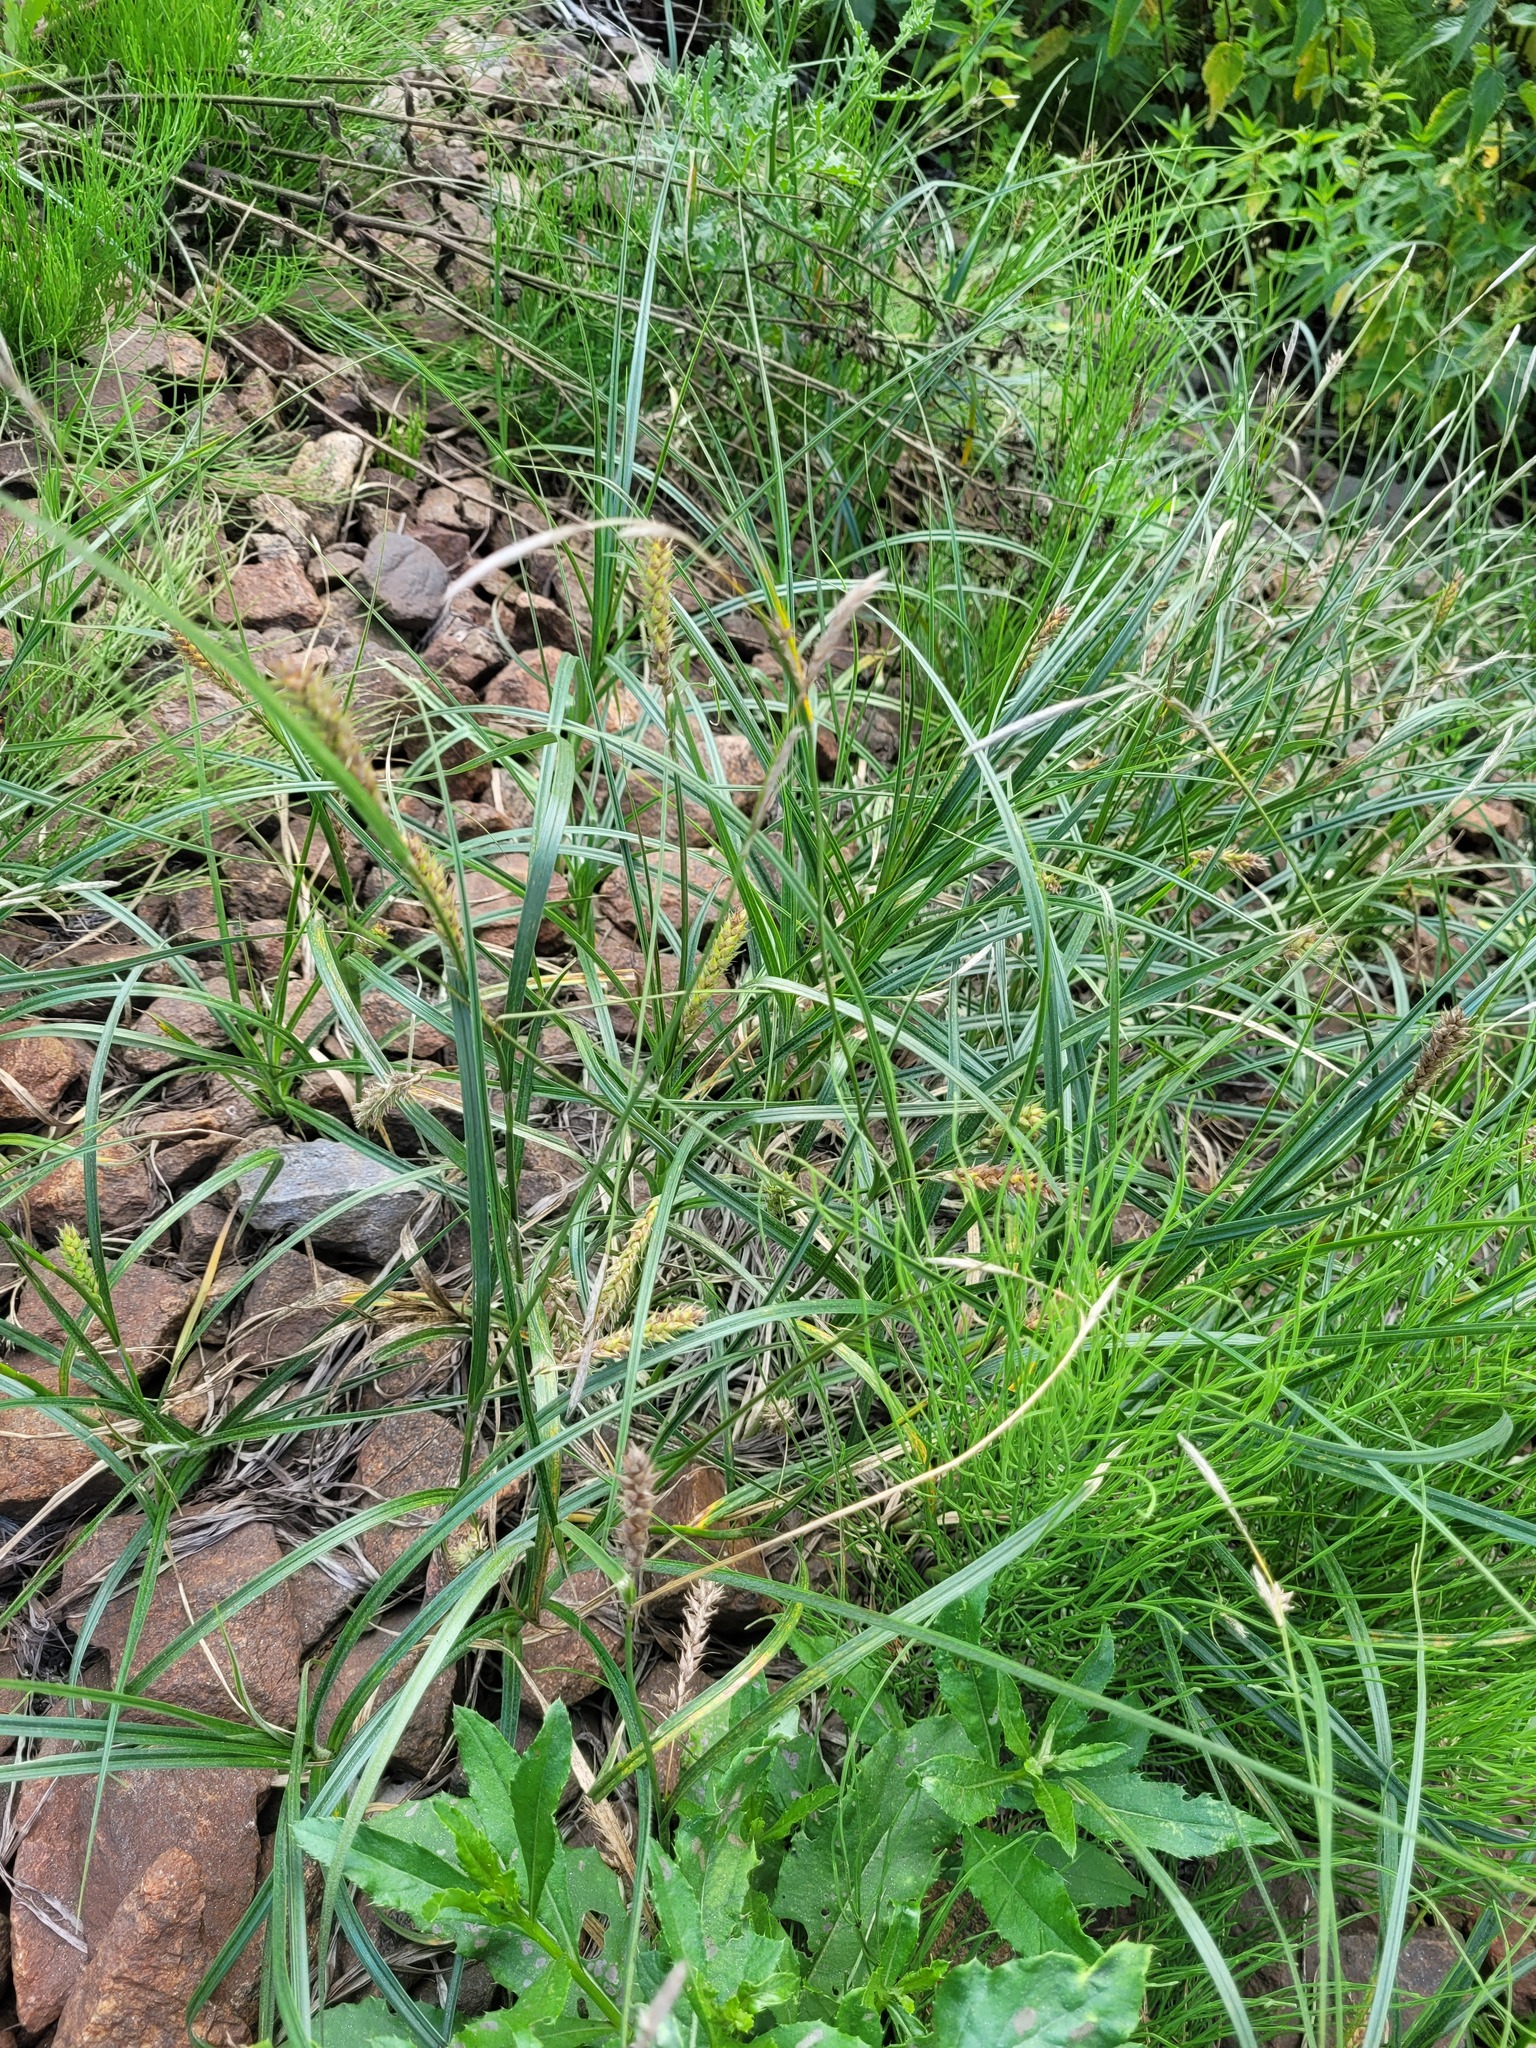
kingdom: Plantae
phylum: Tracheophyta
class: Liliopsida
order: Poales
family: Cyperaceae
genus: Carex
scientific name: Carex hirta
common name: Hairy sedge
